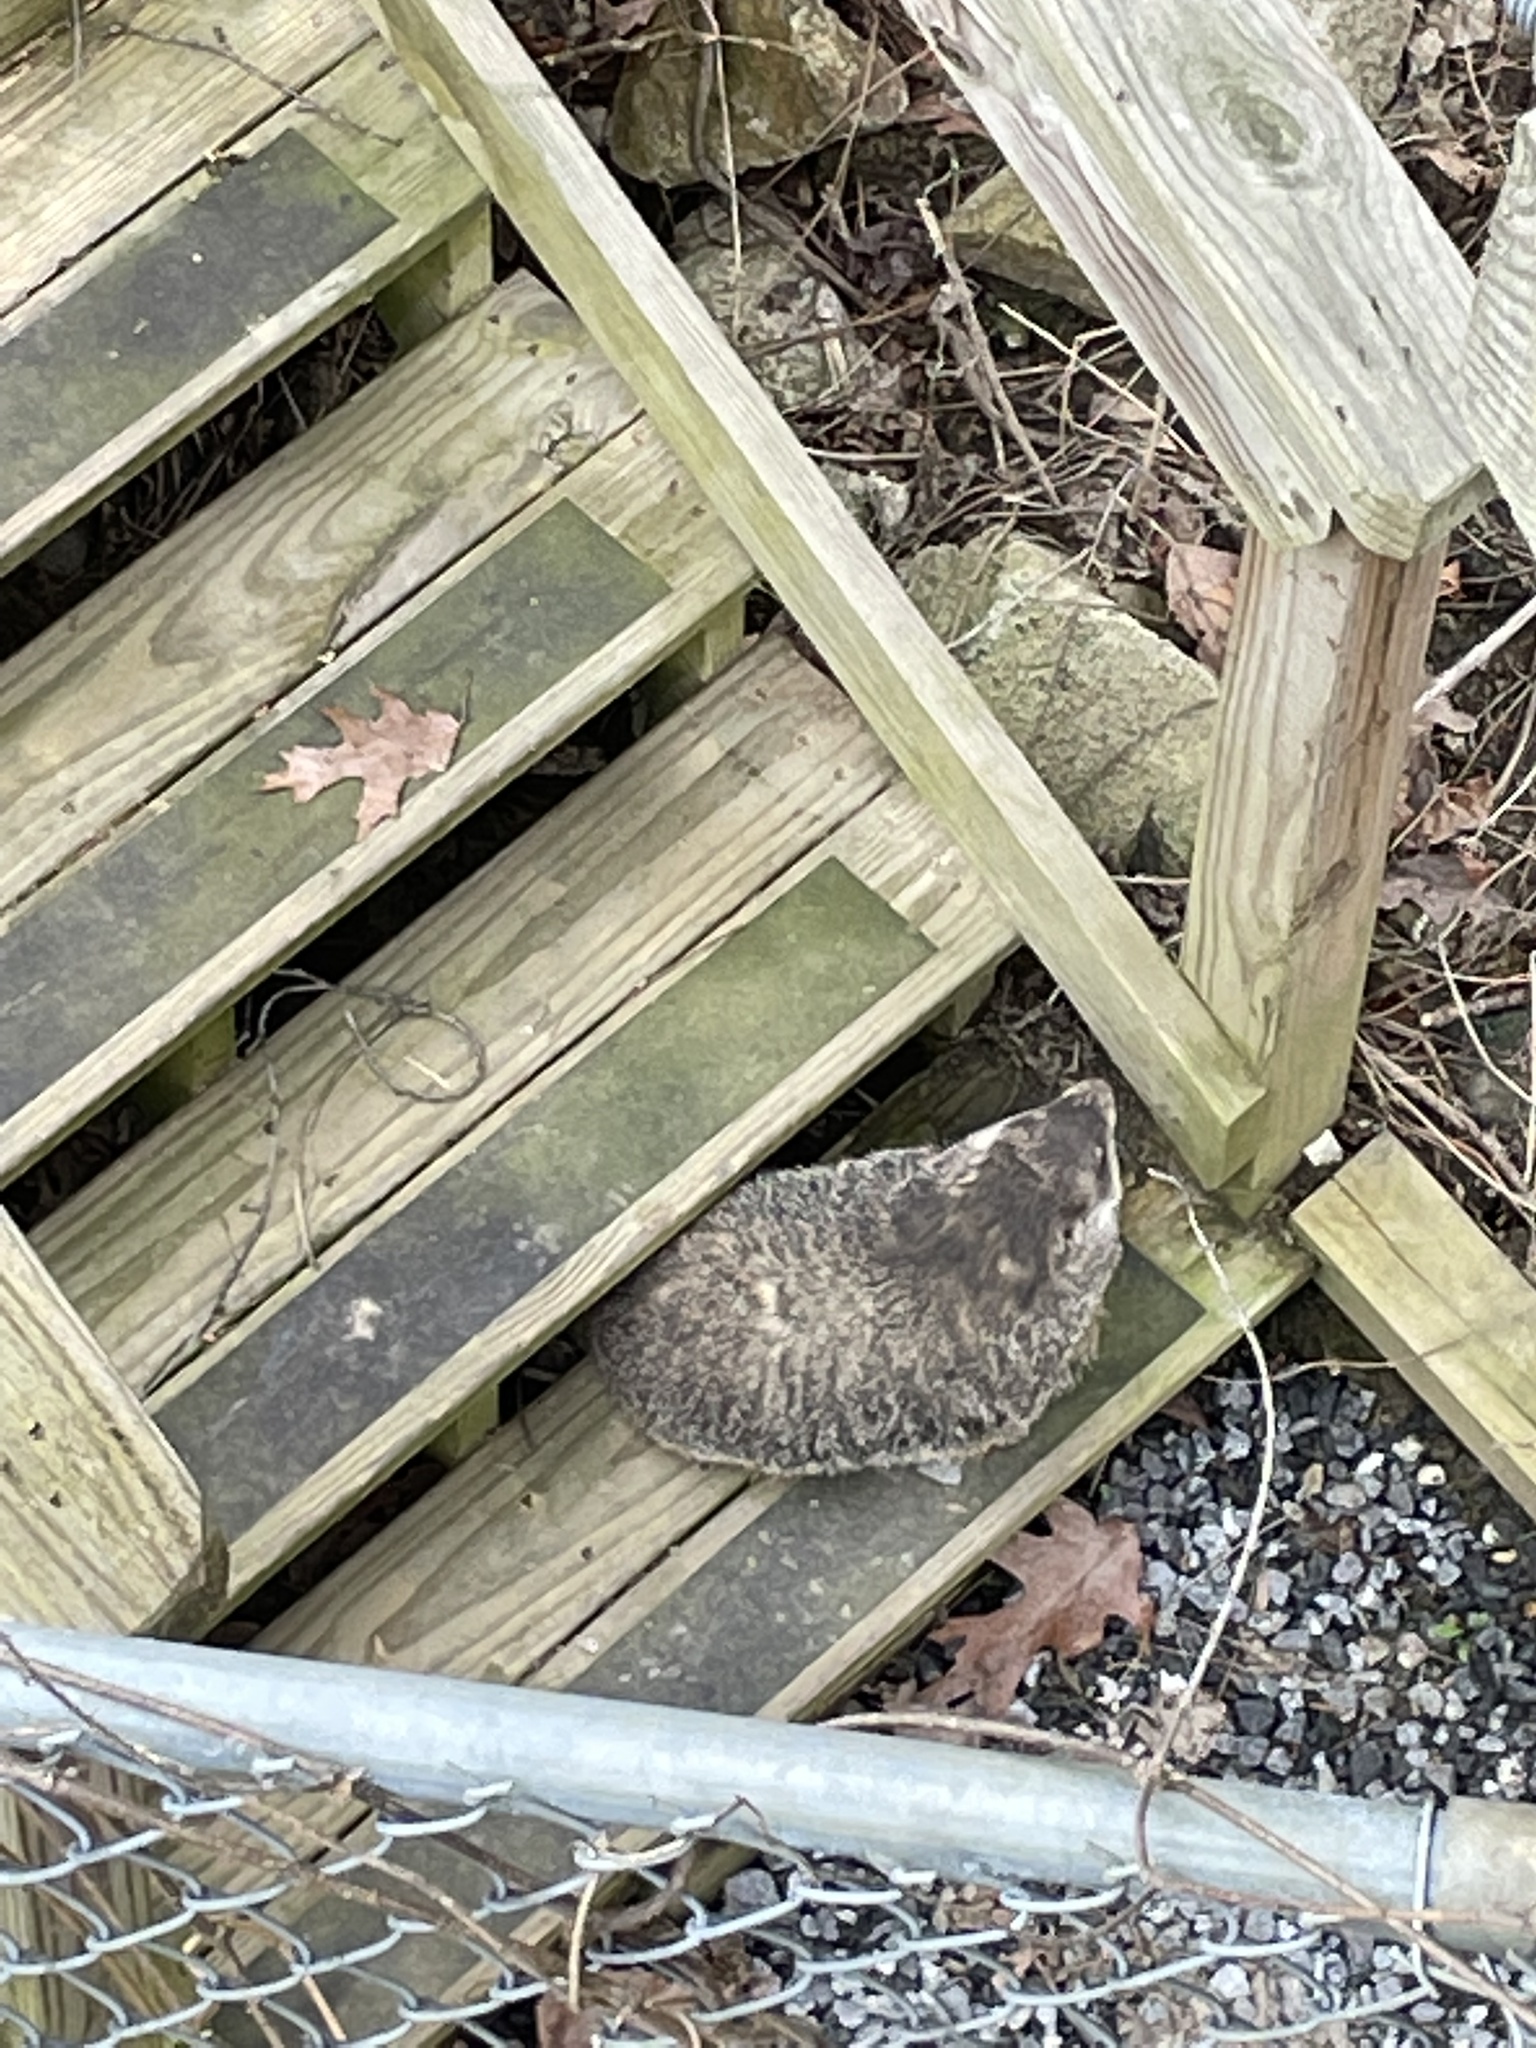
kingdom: Animalia
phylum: Chordata
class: Mammalia
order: Rodentia
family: Sciuridae
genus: Marmota
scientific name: Marmota monax
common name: Groundhog
